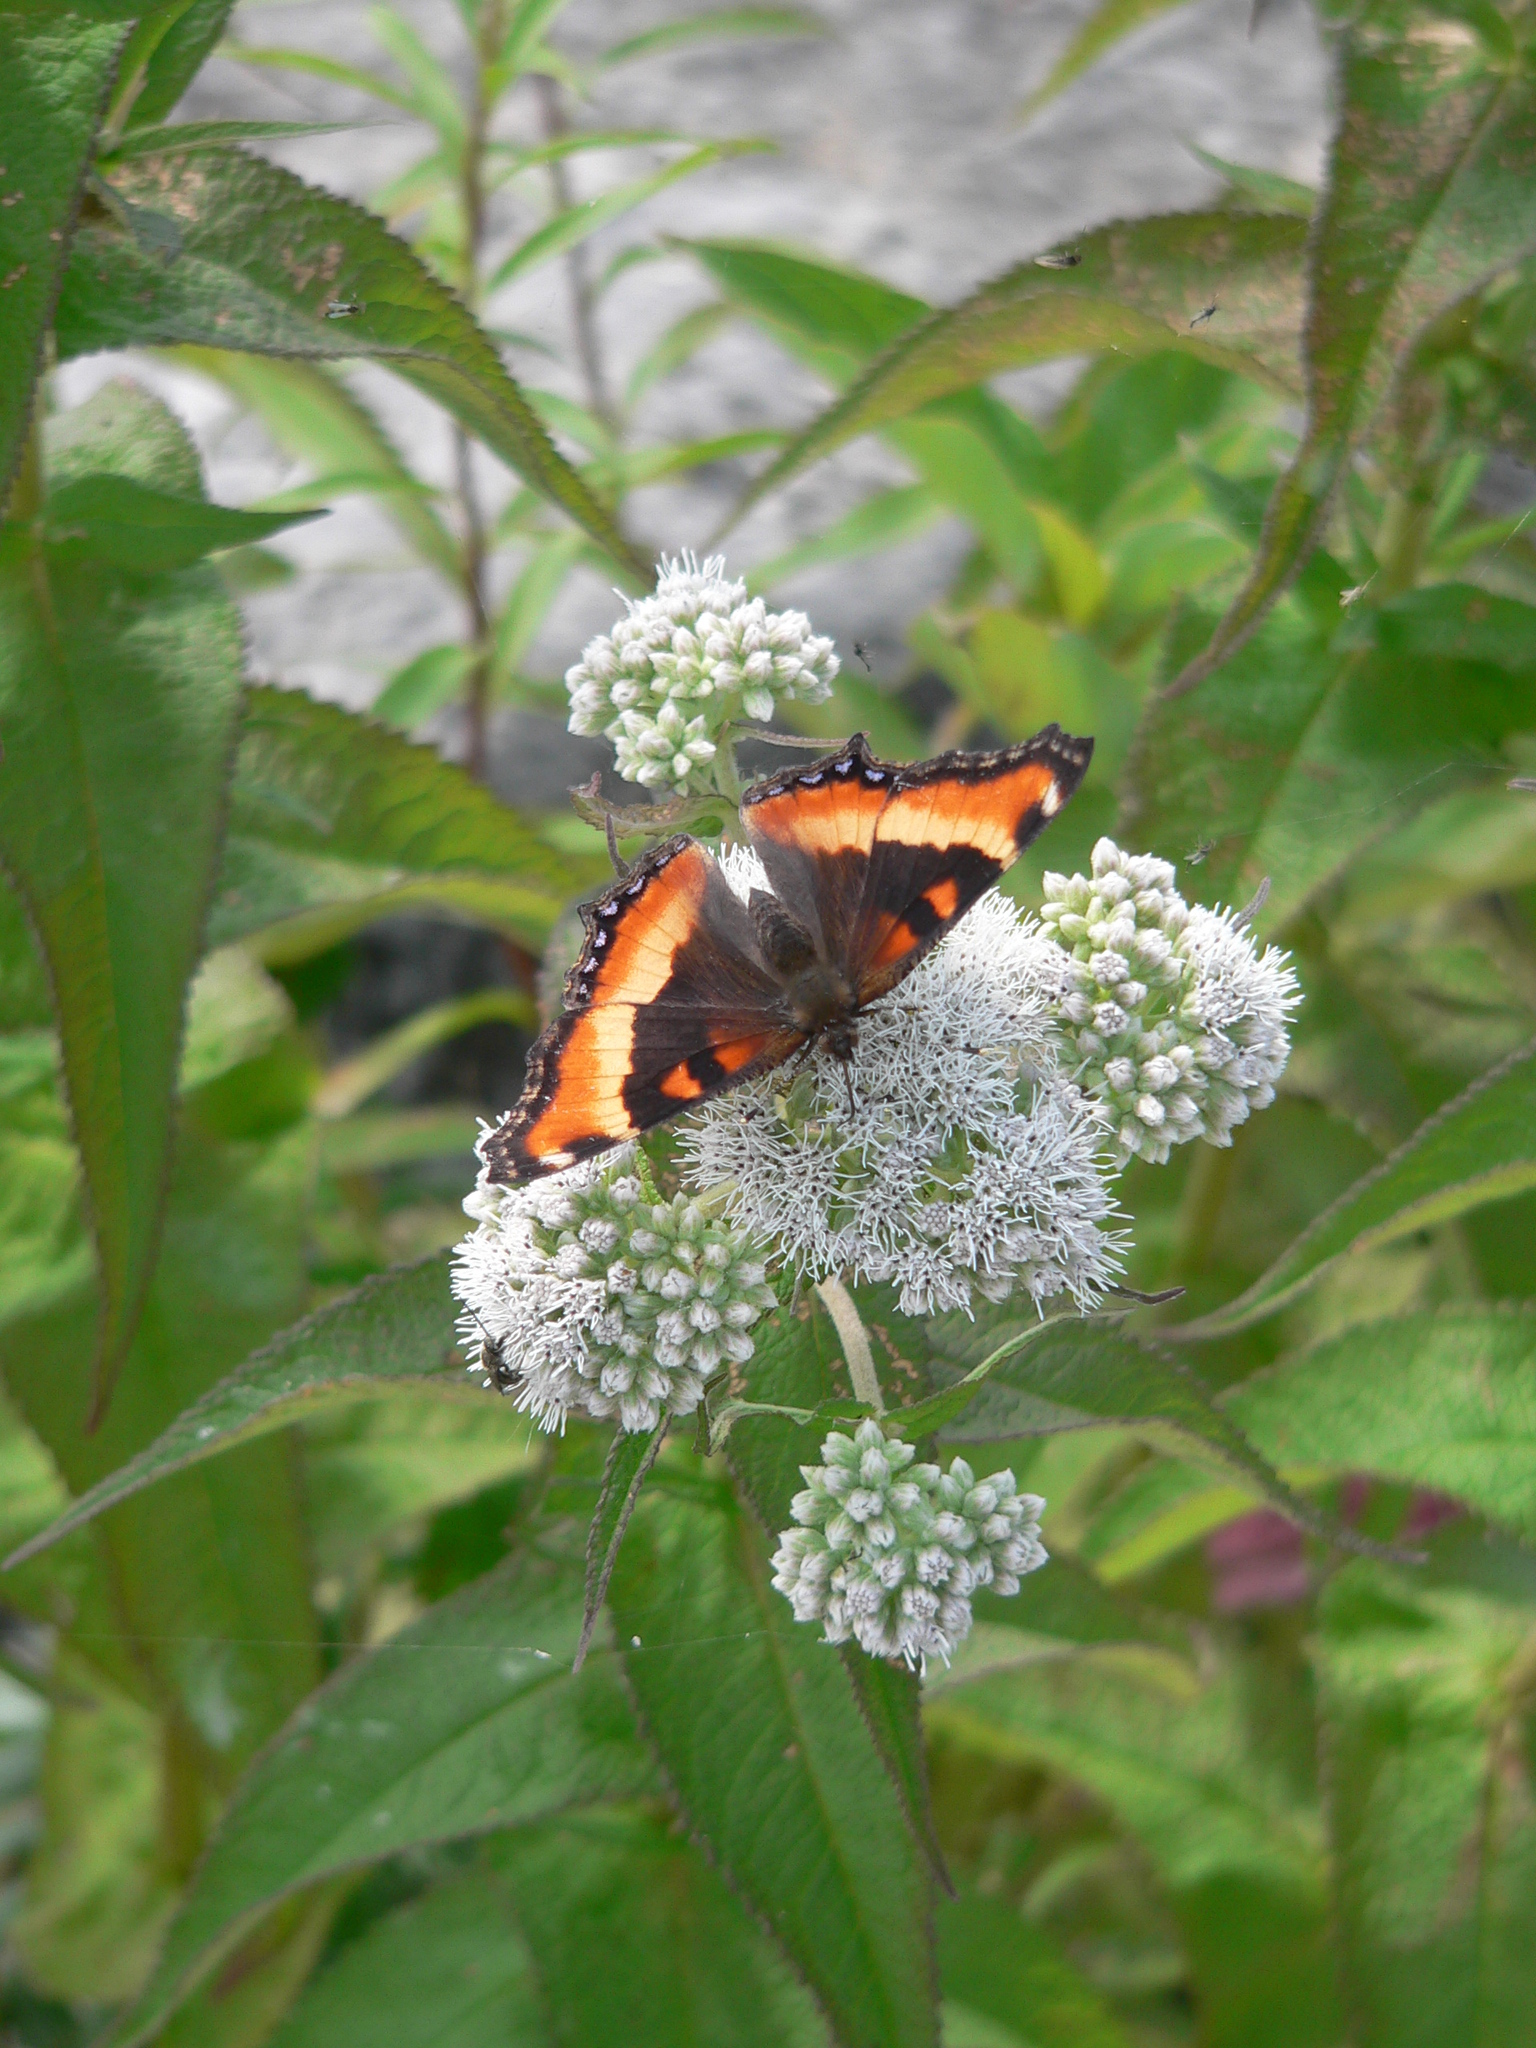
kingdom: Animalia
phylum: Arthropoda
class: Insecta
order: Lepidoptera
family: Nymphalidae
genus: Aglais
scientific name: Aglais milberti
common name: Milbert's tortoiseshell
